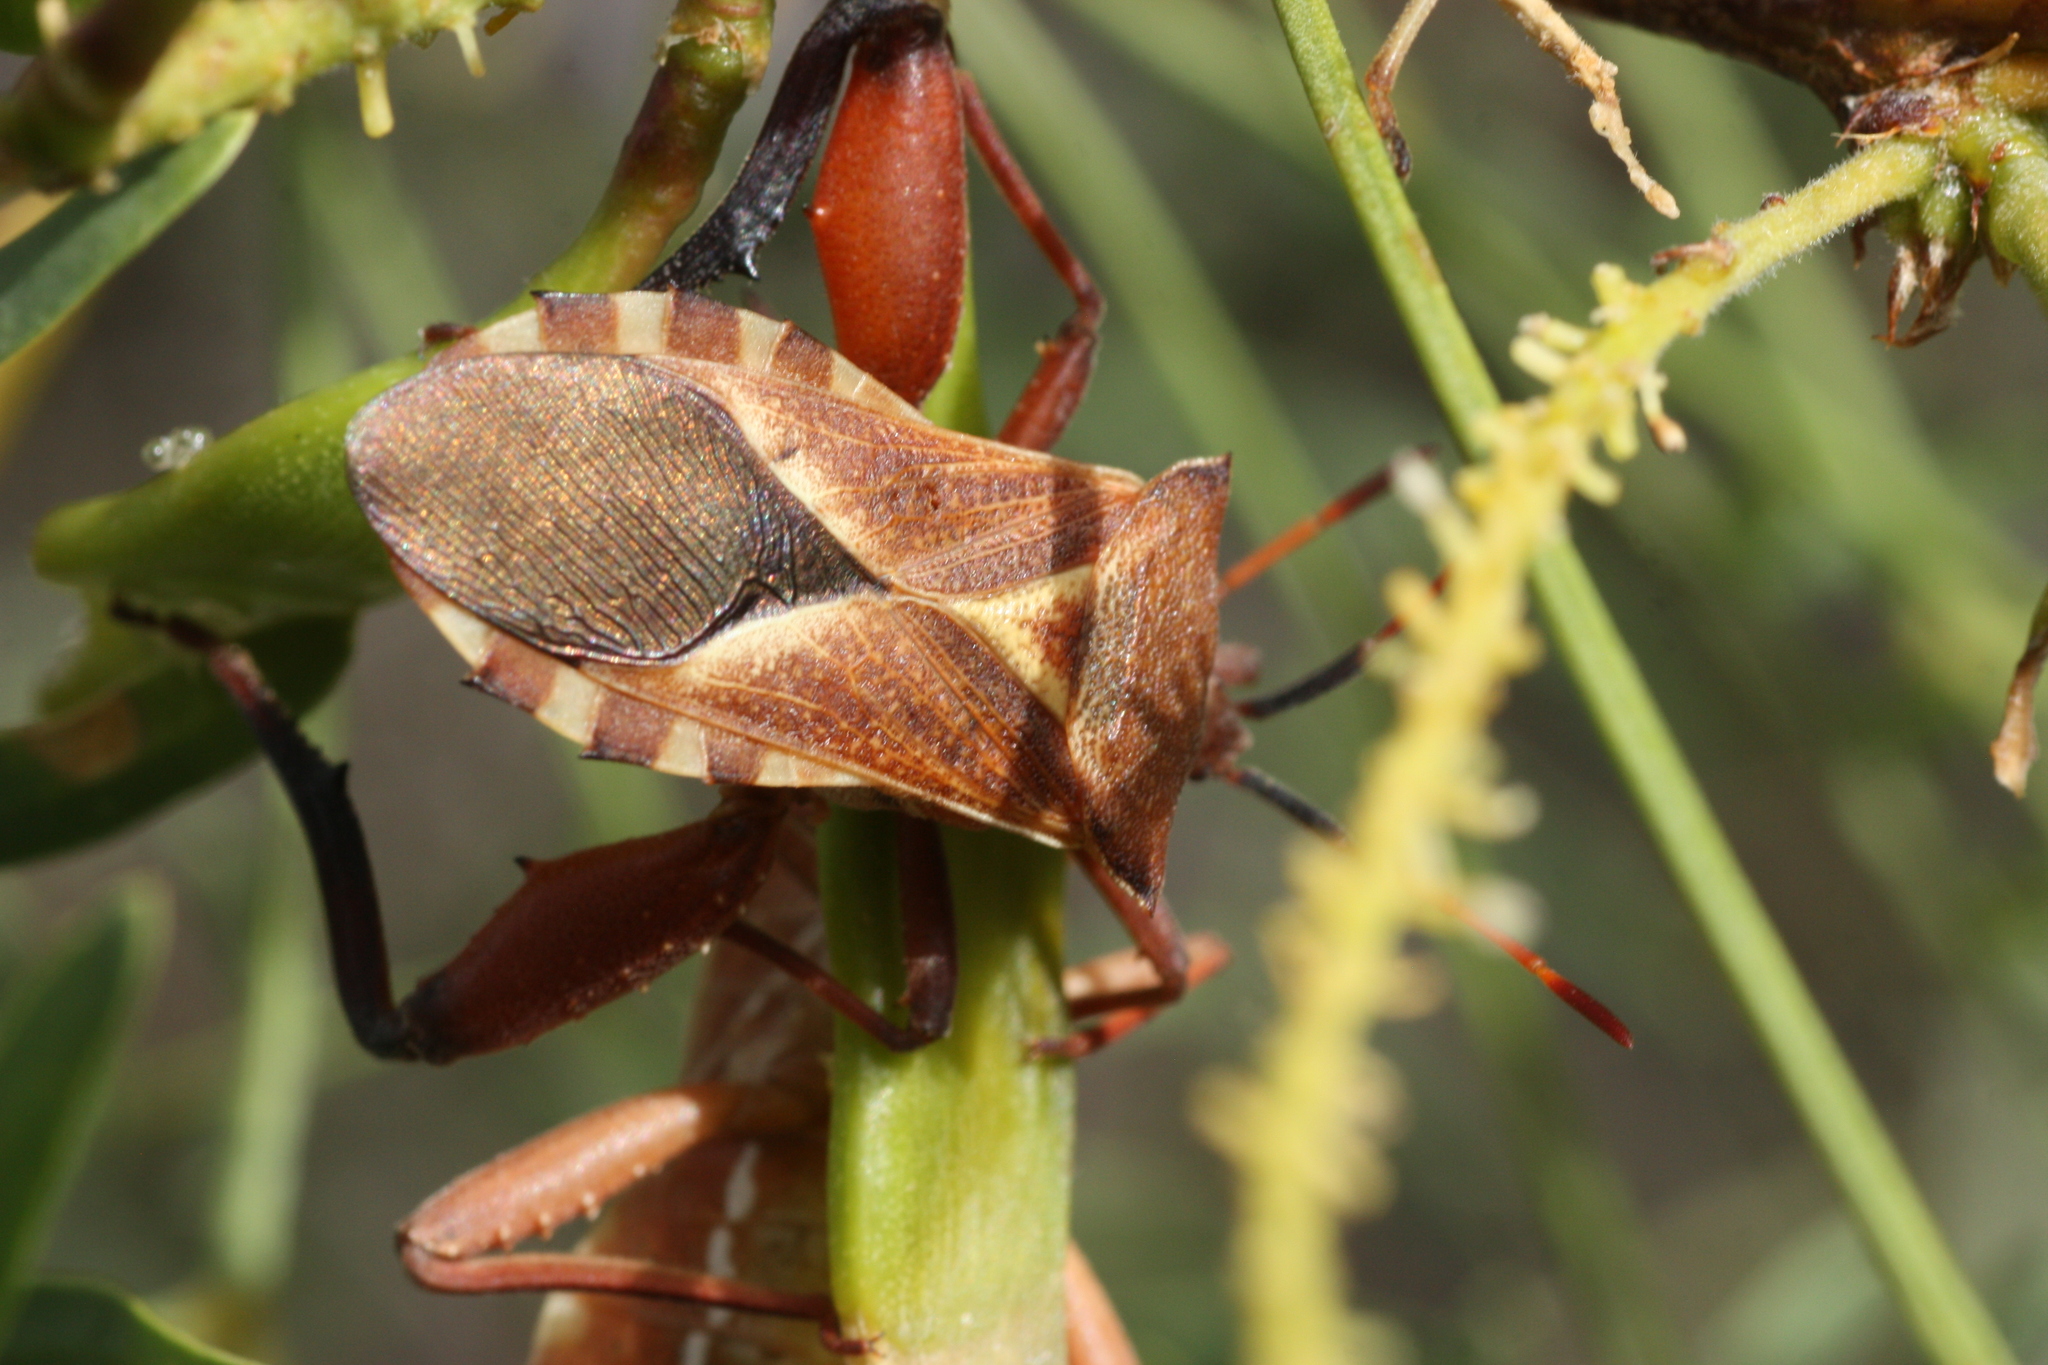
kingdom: Animalia
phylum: Arthropoda
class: Insecta
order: Hemiptera
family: Coreidae
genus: Mozena
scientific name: Mozena
